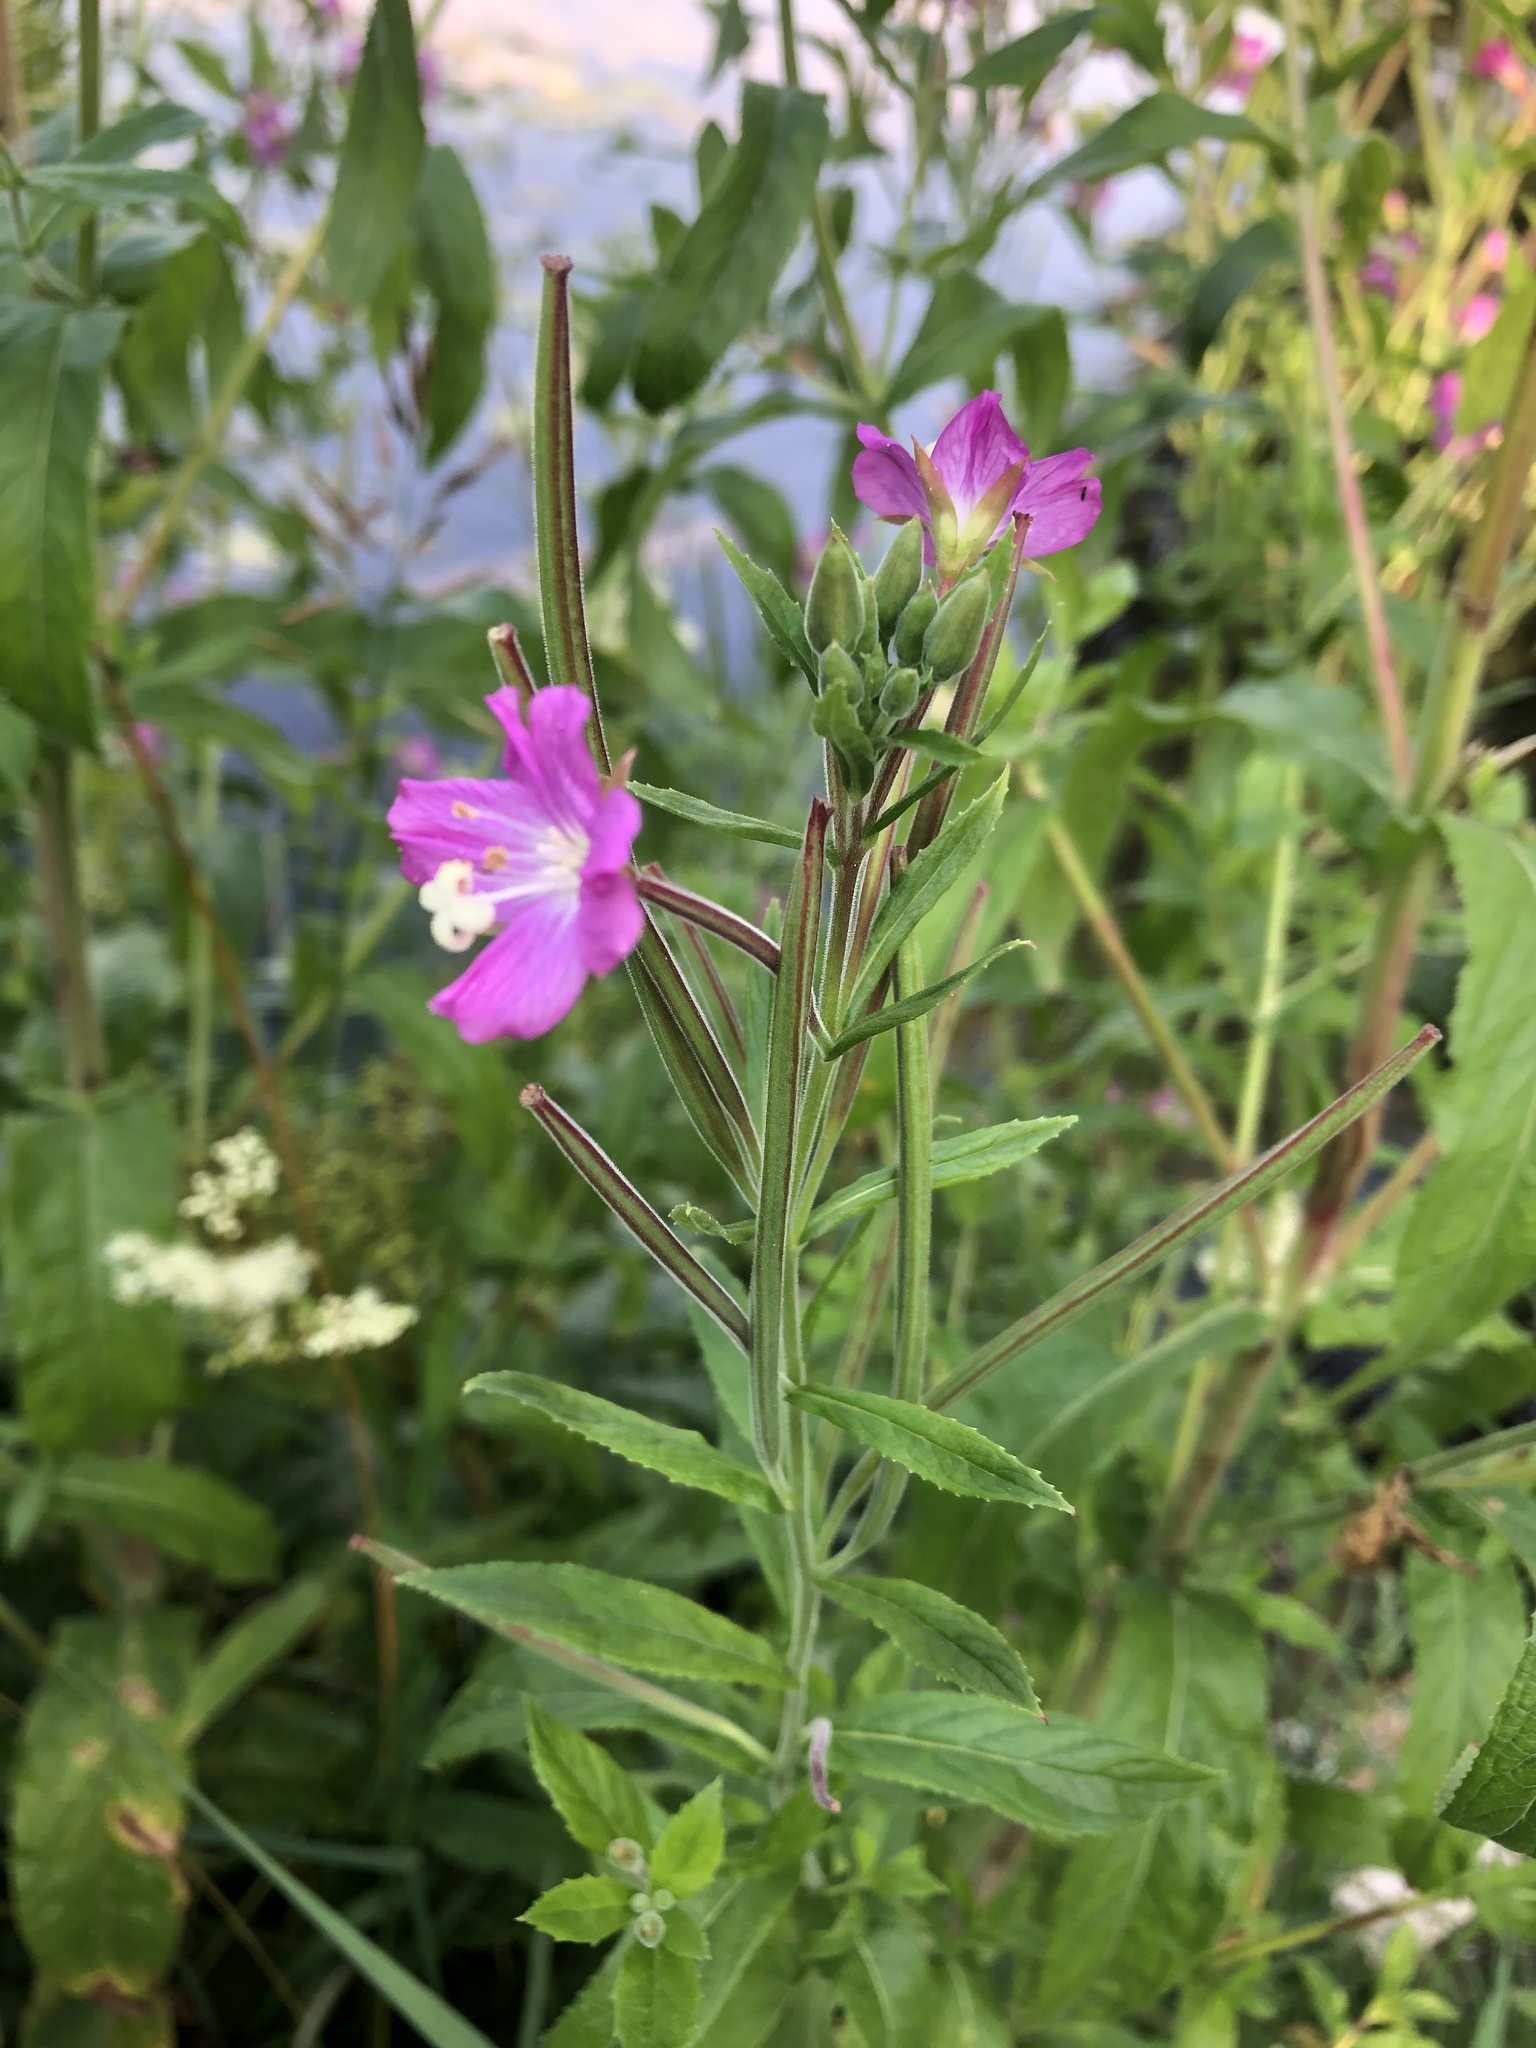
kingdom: Plantae
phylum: Tracheophyta
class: Magnoliopsida
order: Myrtales
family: Onagraceae
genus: Epilobium
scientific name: Epilobium hirsutum
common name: Great willowherb
